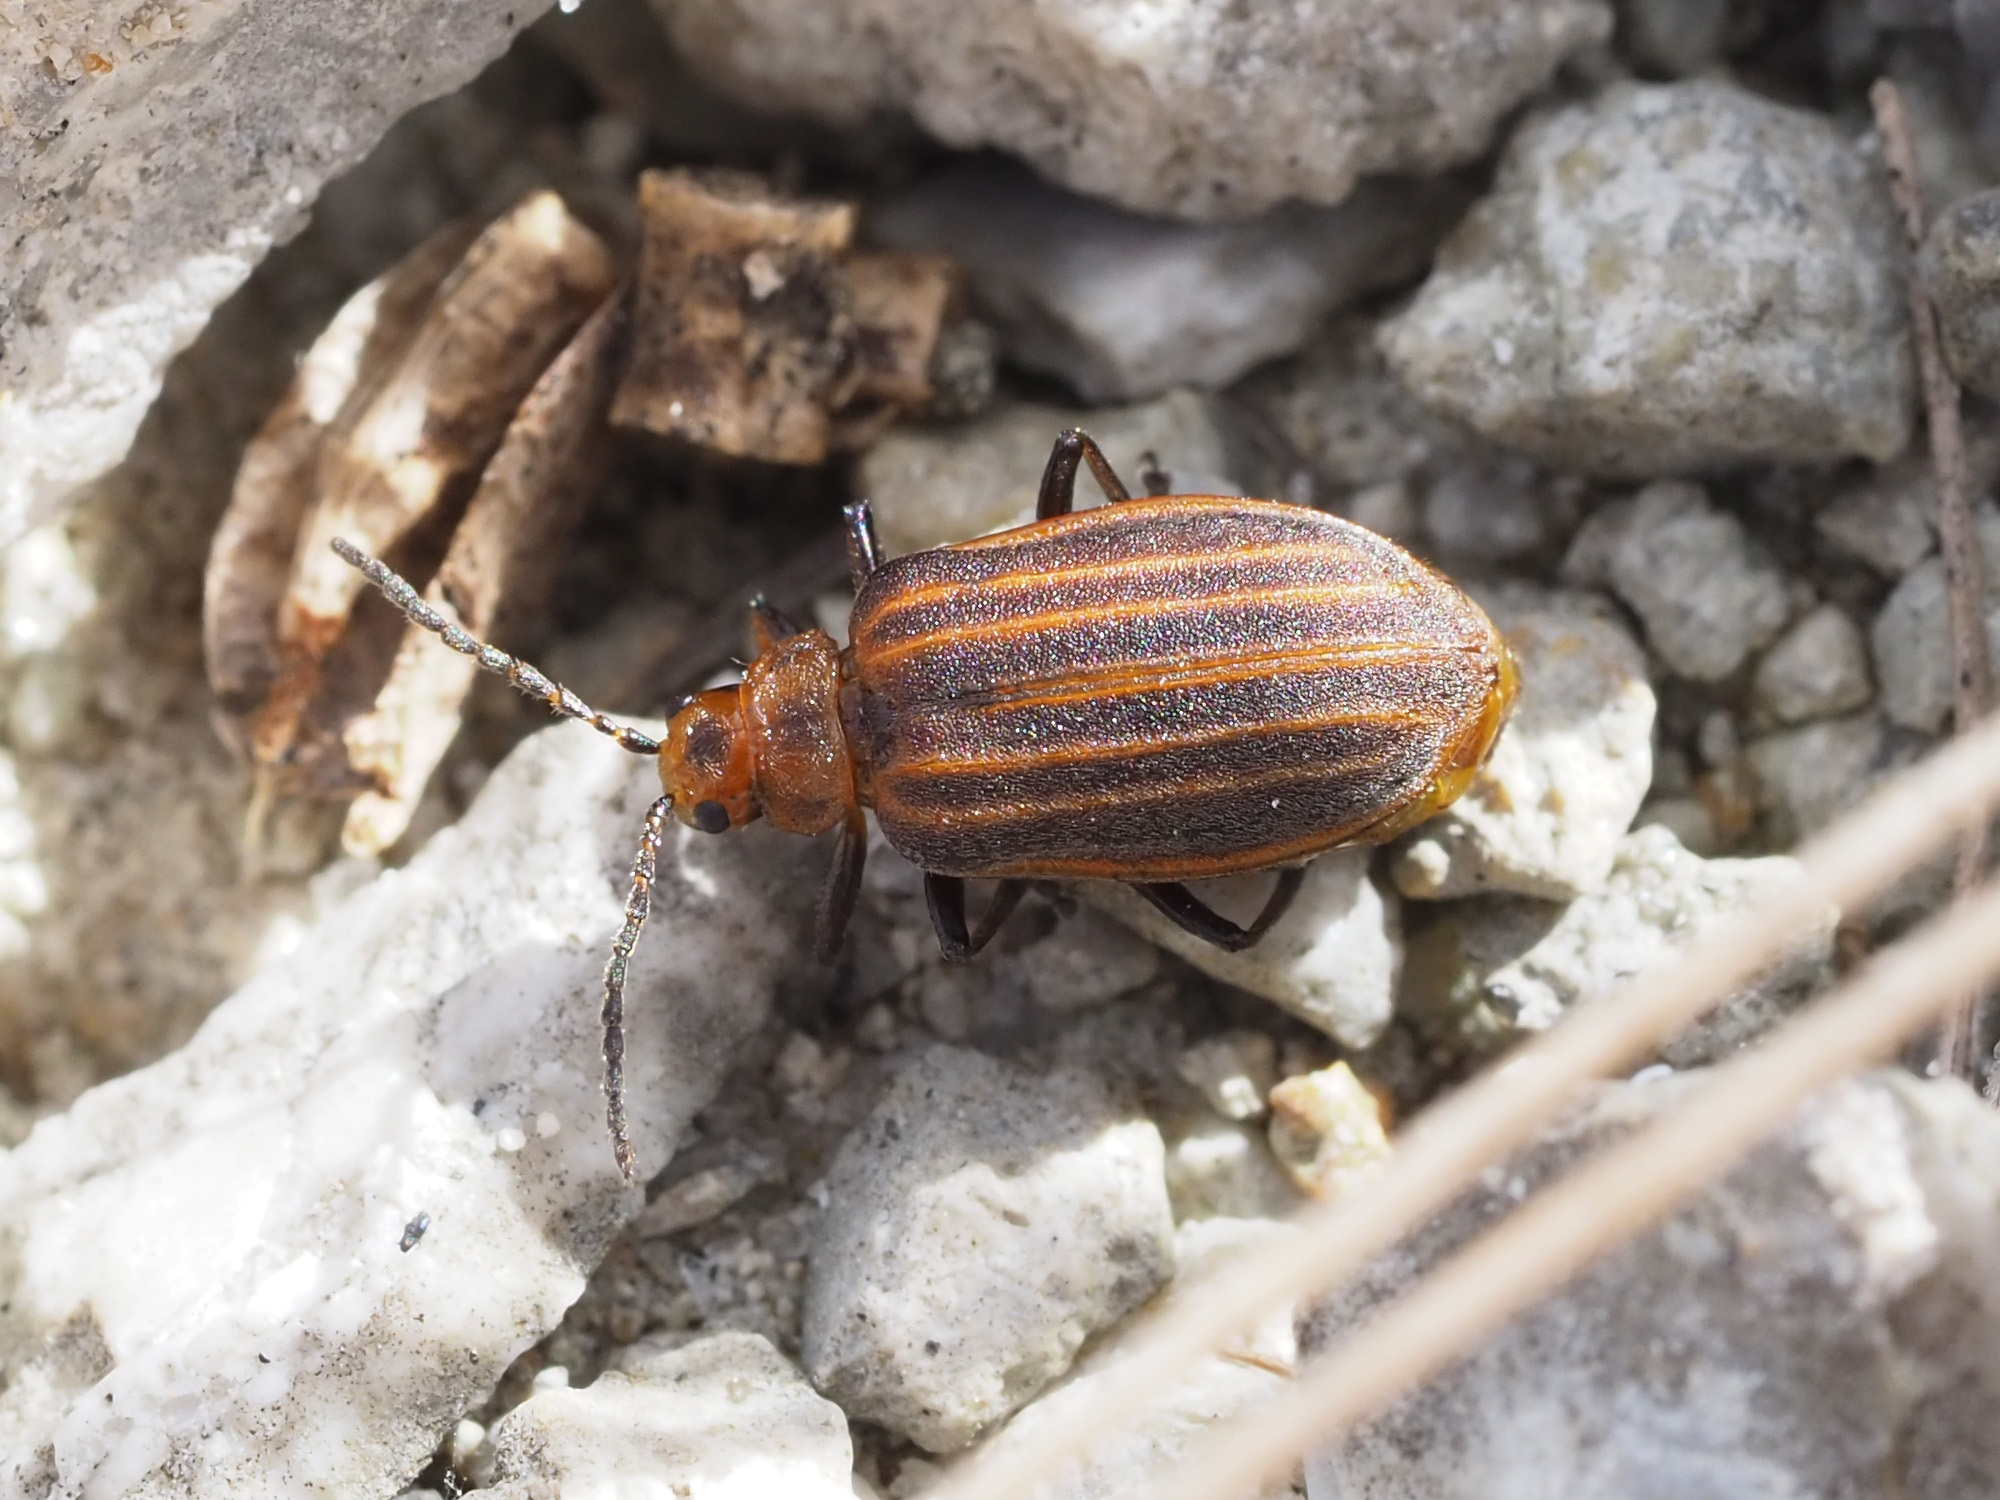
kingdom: Animalia
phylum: Arthropoda
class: Insecta
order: Coleoptera
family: Chrysomelidae
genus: Neolochmaea
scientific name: Neolochmaea dilatipennis
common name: Skeletonizing leaf beetle
